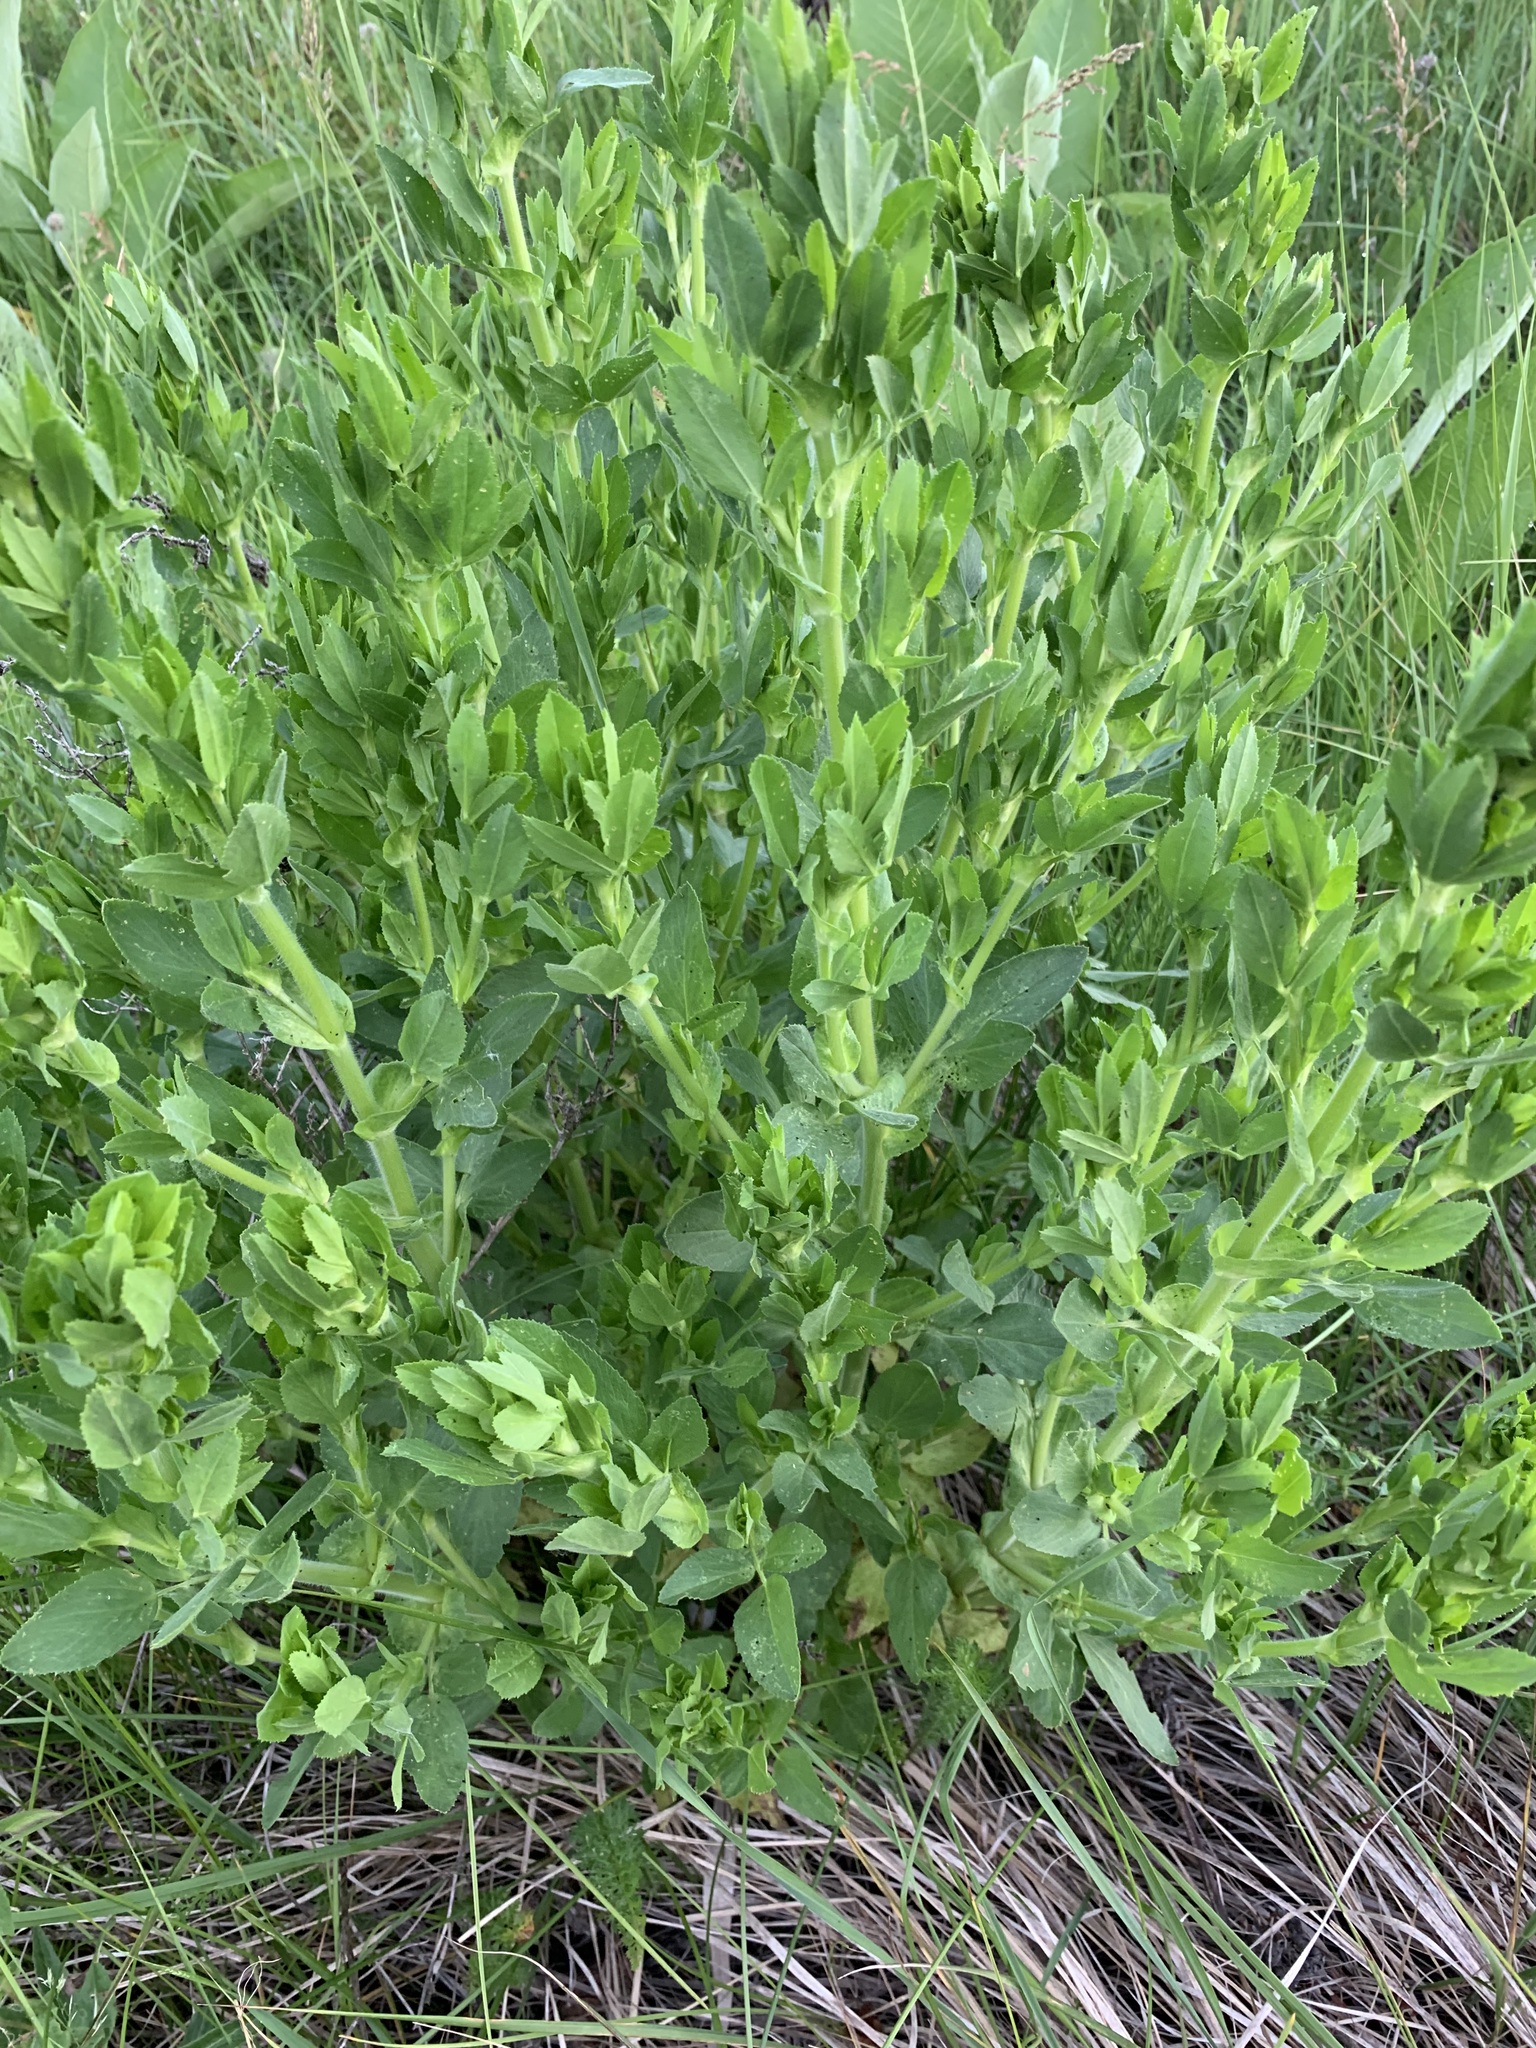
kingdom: Plantae
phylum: Tracheophyta
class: Magnoliopsida
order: Fabales
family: Fabaceae
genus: Ononis
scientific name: Ononis arvensis
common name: Field restharrow
